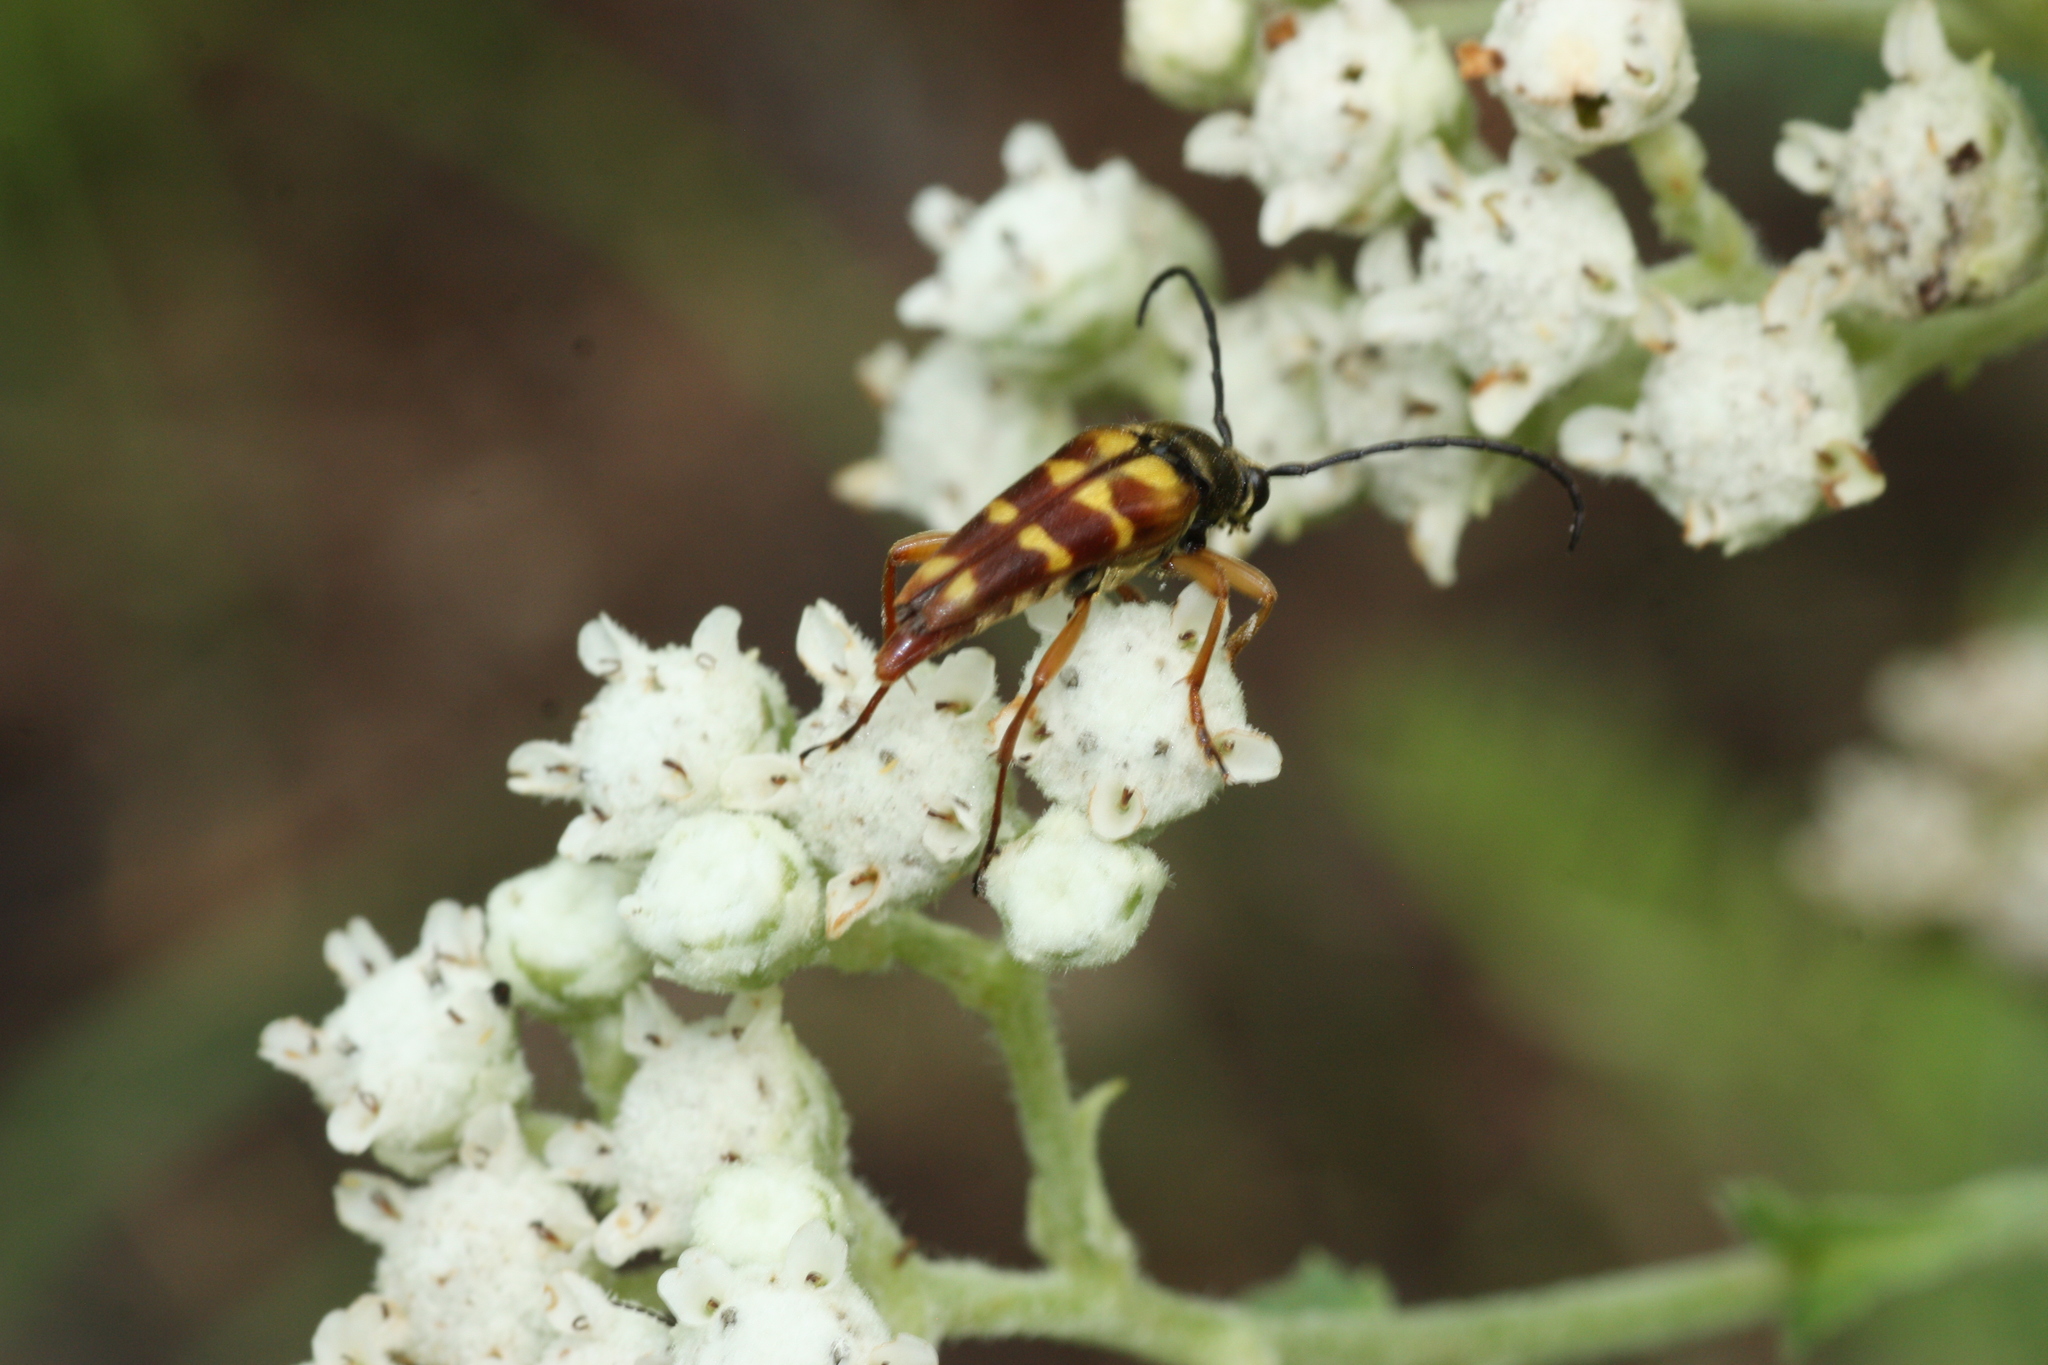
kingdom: Animalia
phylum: Arthropoda
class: Insecta
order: Coleoptera
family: Cerambycidae
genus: Typocerus
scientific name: Typocerus velutinus
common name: Banded longhorn beetle
